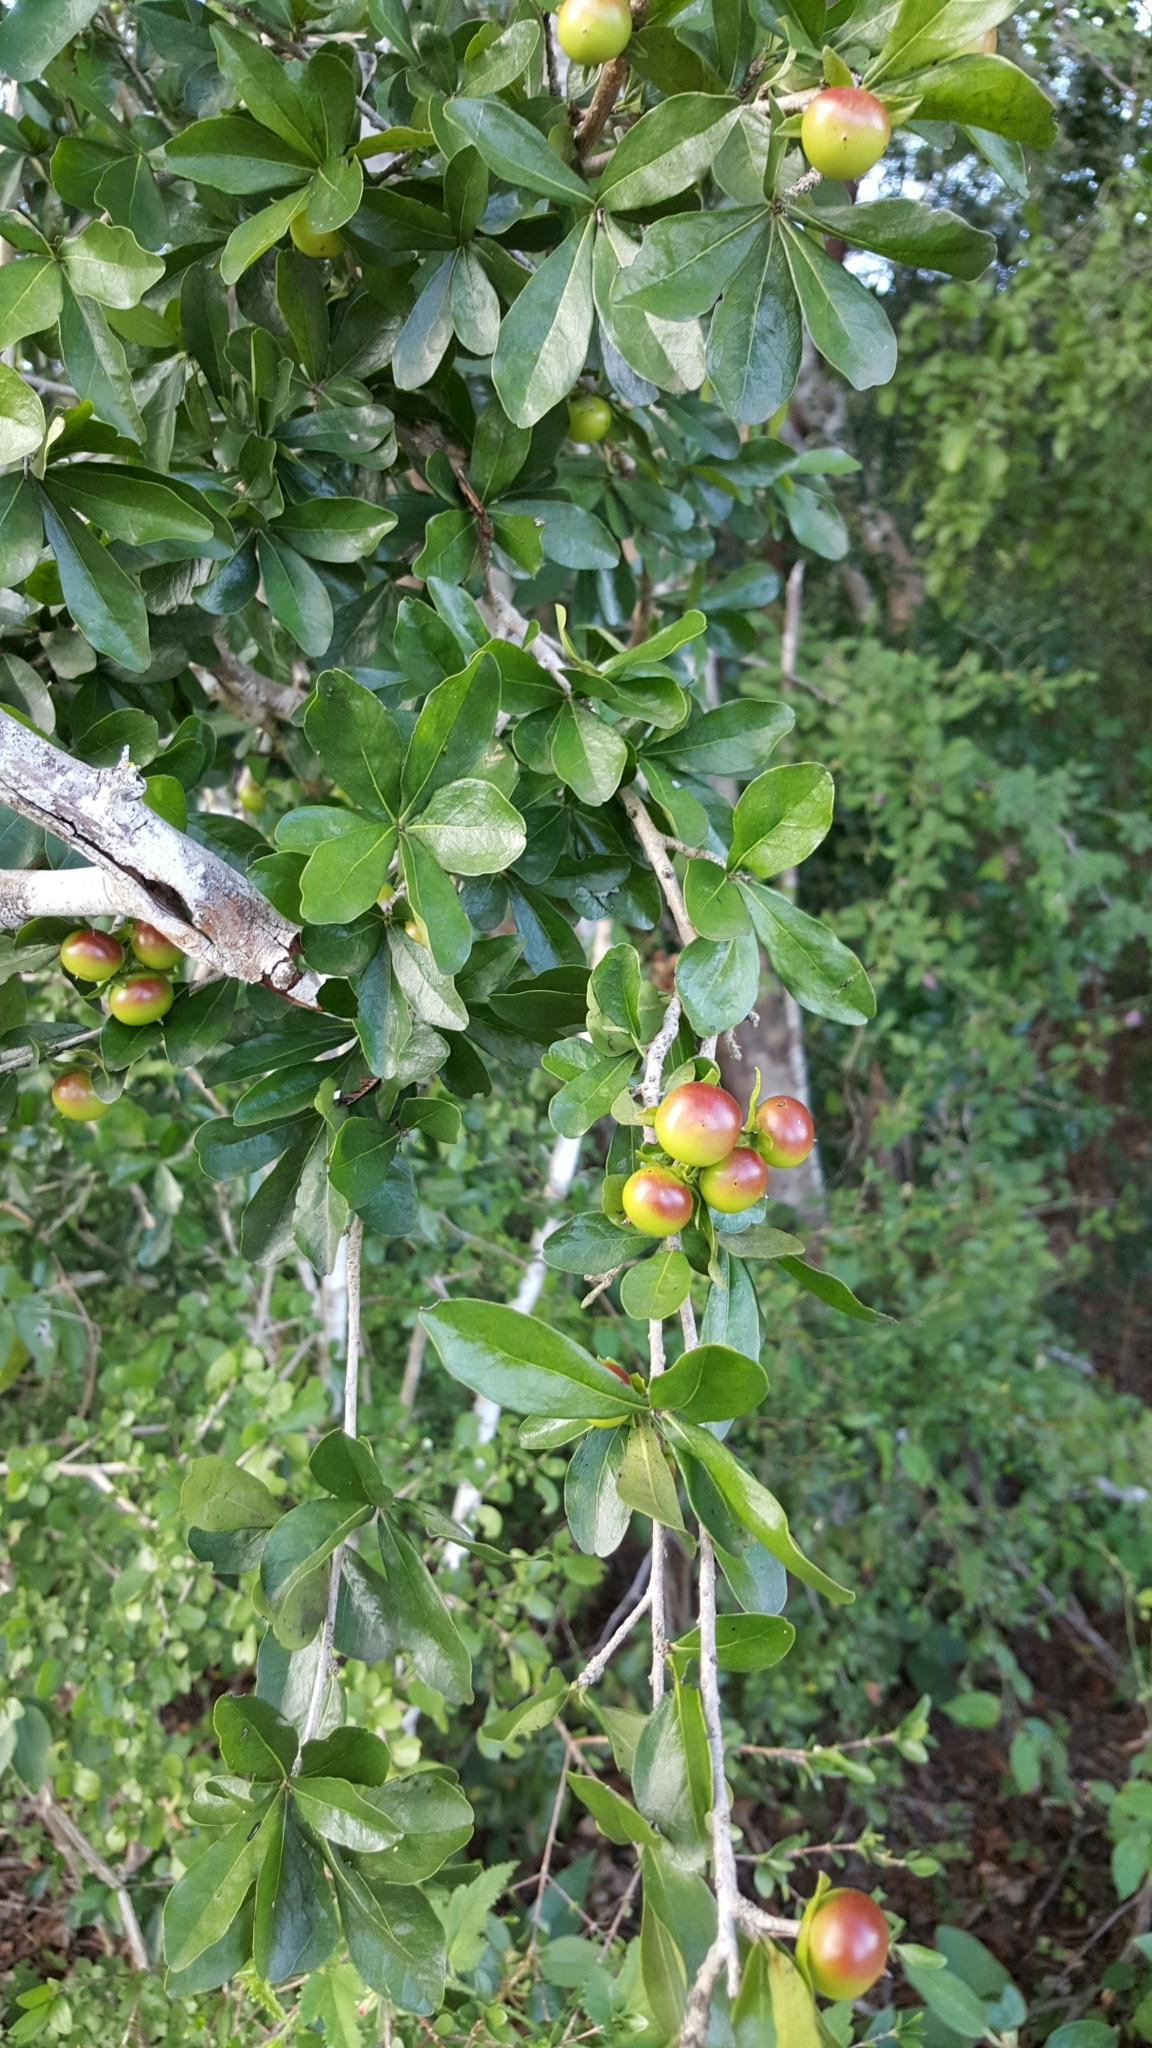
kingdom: Plantae
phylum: Tracheophyta
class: Magnoliopsida
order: Ericales
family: Ebenaceae
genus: Diospyros
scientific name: Diospyros anisandra
